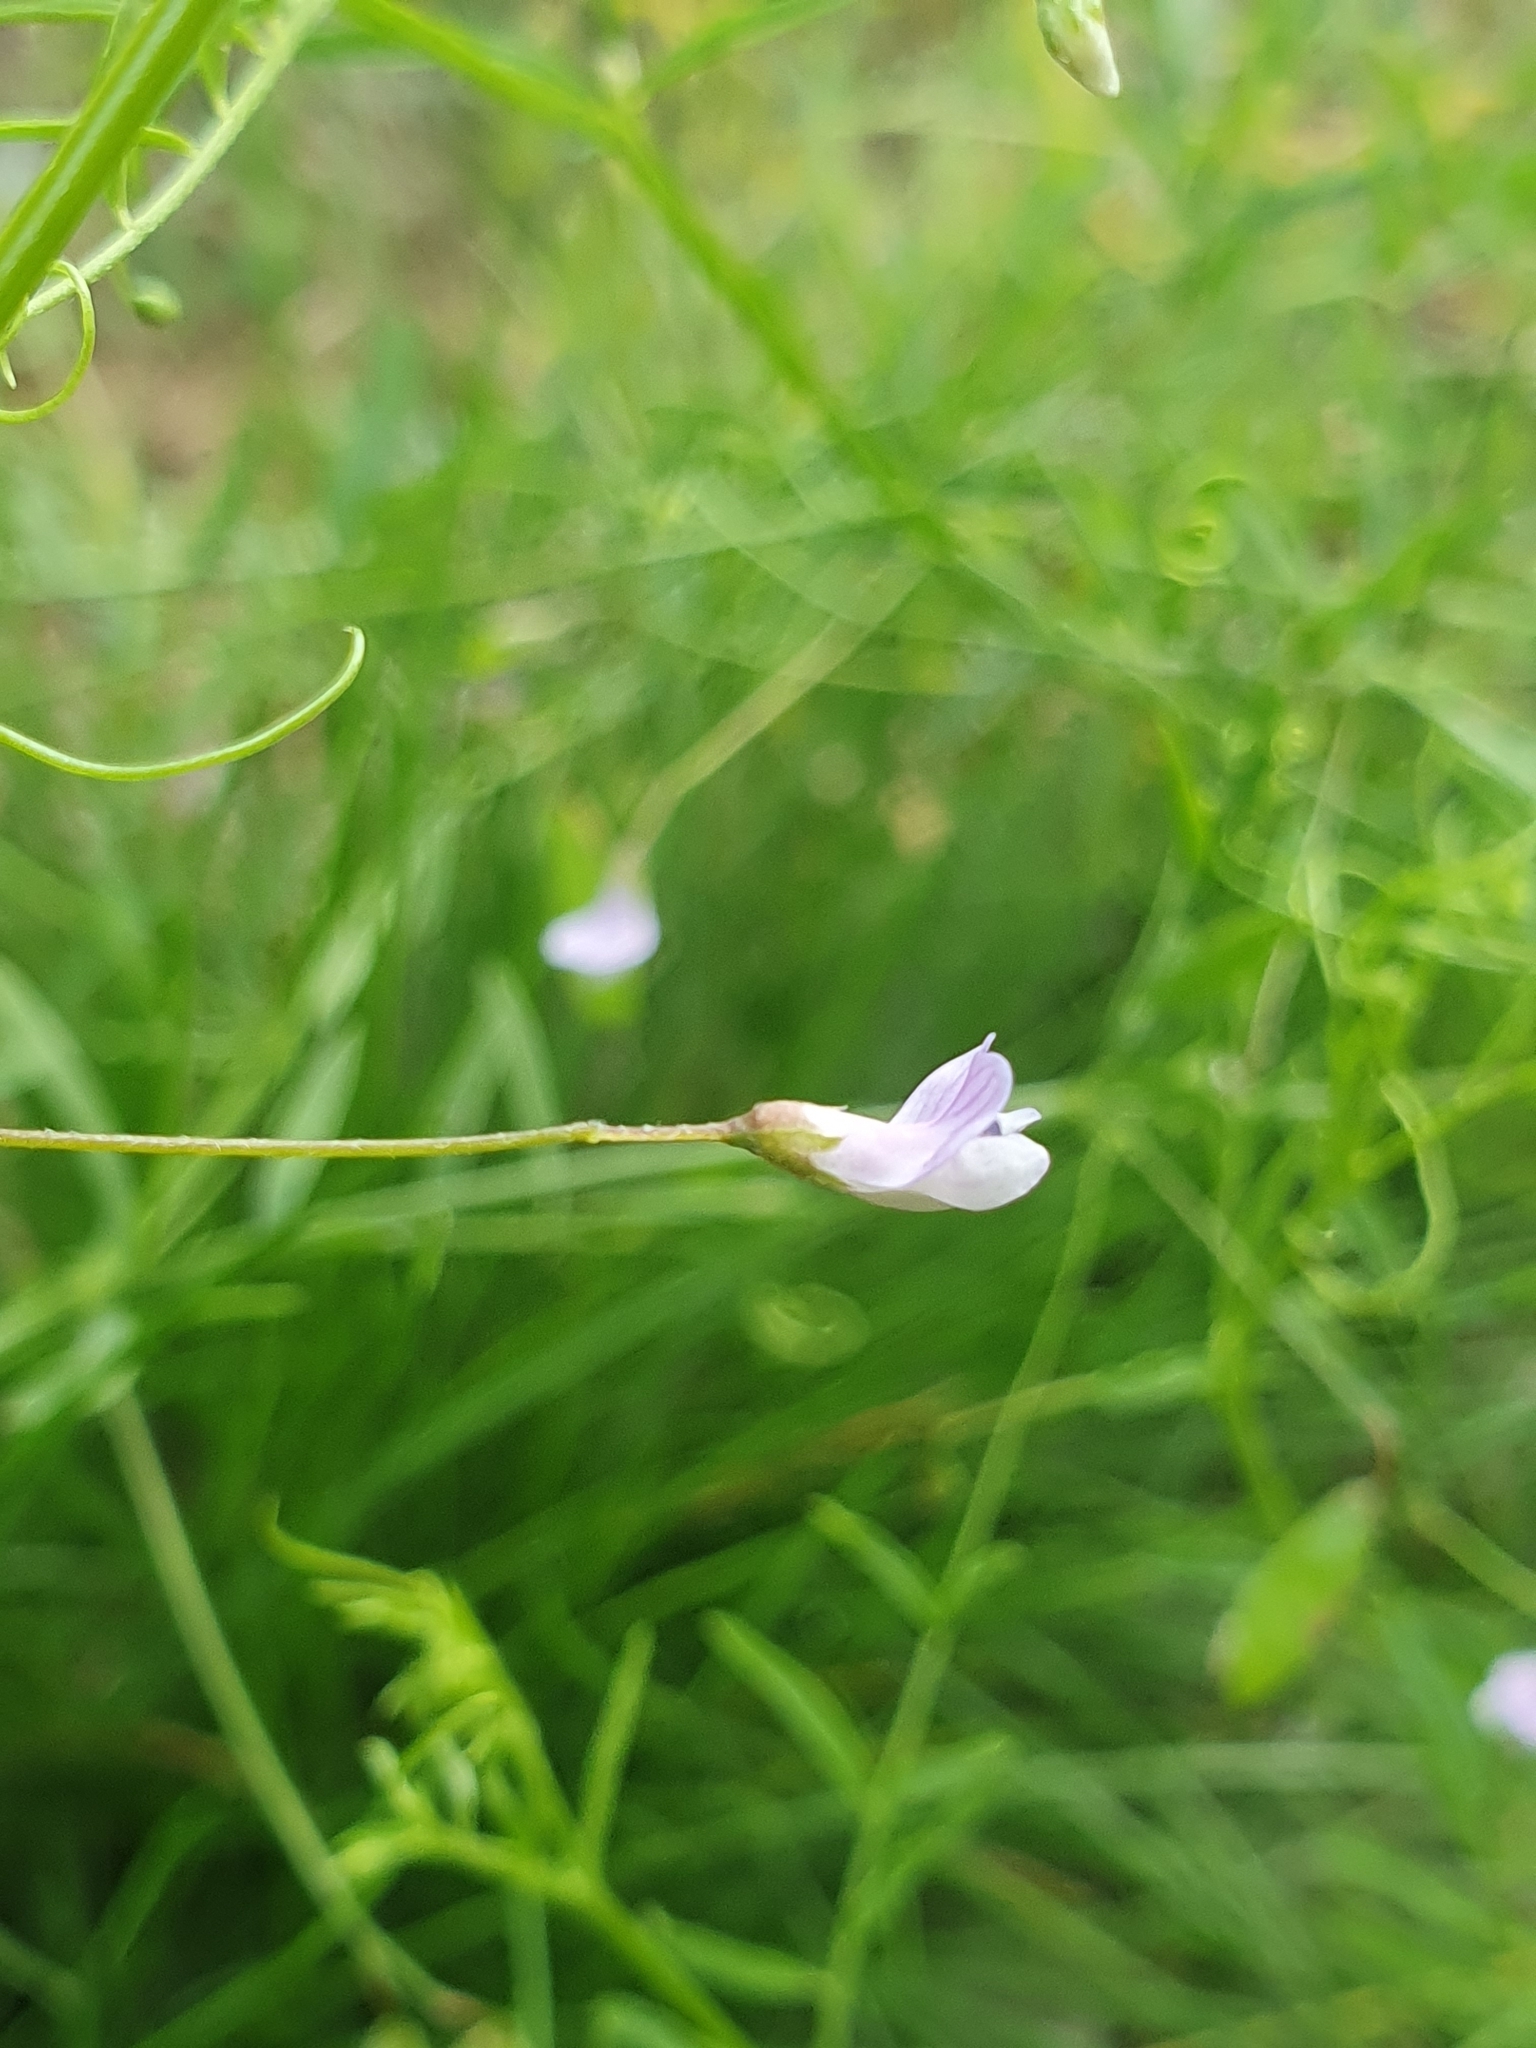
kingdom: Plantae
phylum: Tracheophyta
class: Magnoliopsida
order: Fabales
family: Fabaceae
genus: Vicia
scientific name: Vicia tetrasperma
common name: Smooth tare
